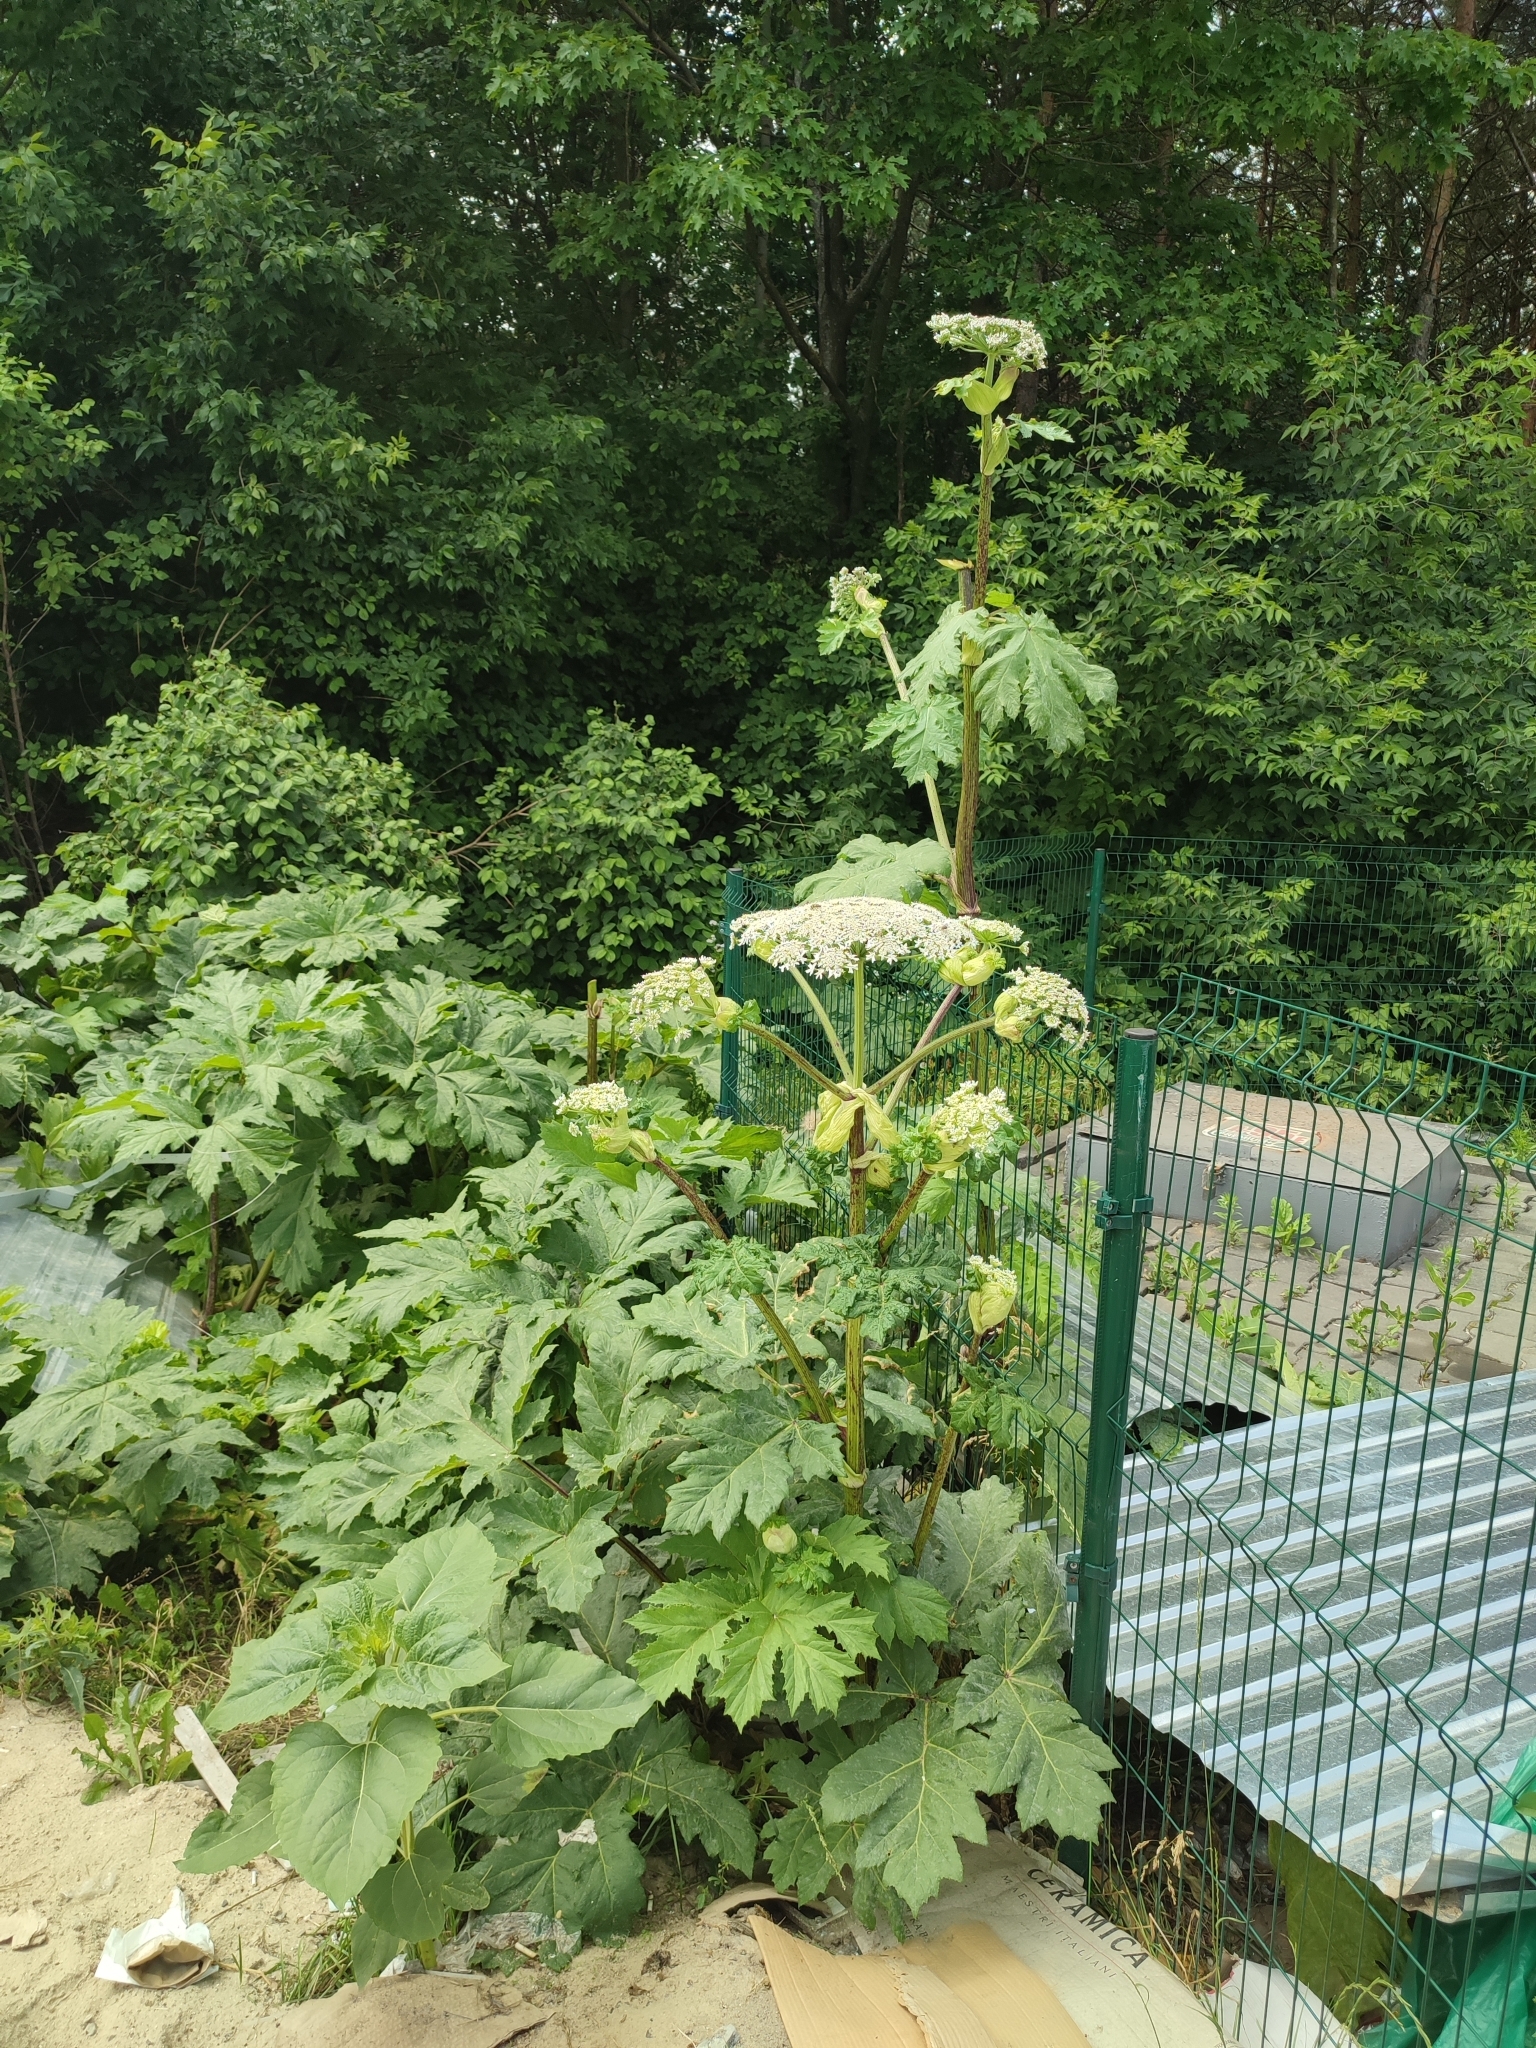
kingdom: Plantae
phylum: Tracheophyta
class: Magnoliopsida
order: Apiales
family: Apiaceae
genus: Heracleum
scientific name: Heracleum sosnowskyi
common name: Sosnowsky's hogweed
